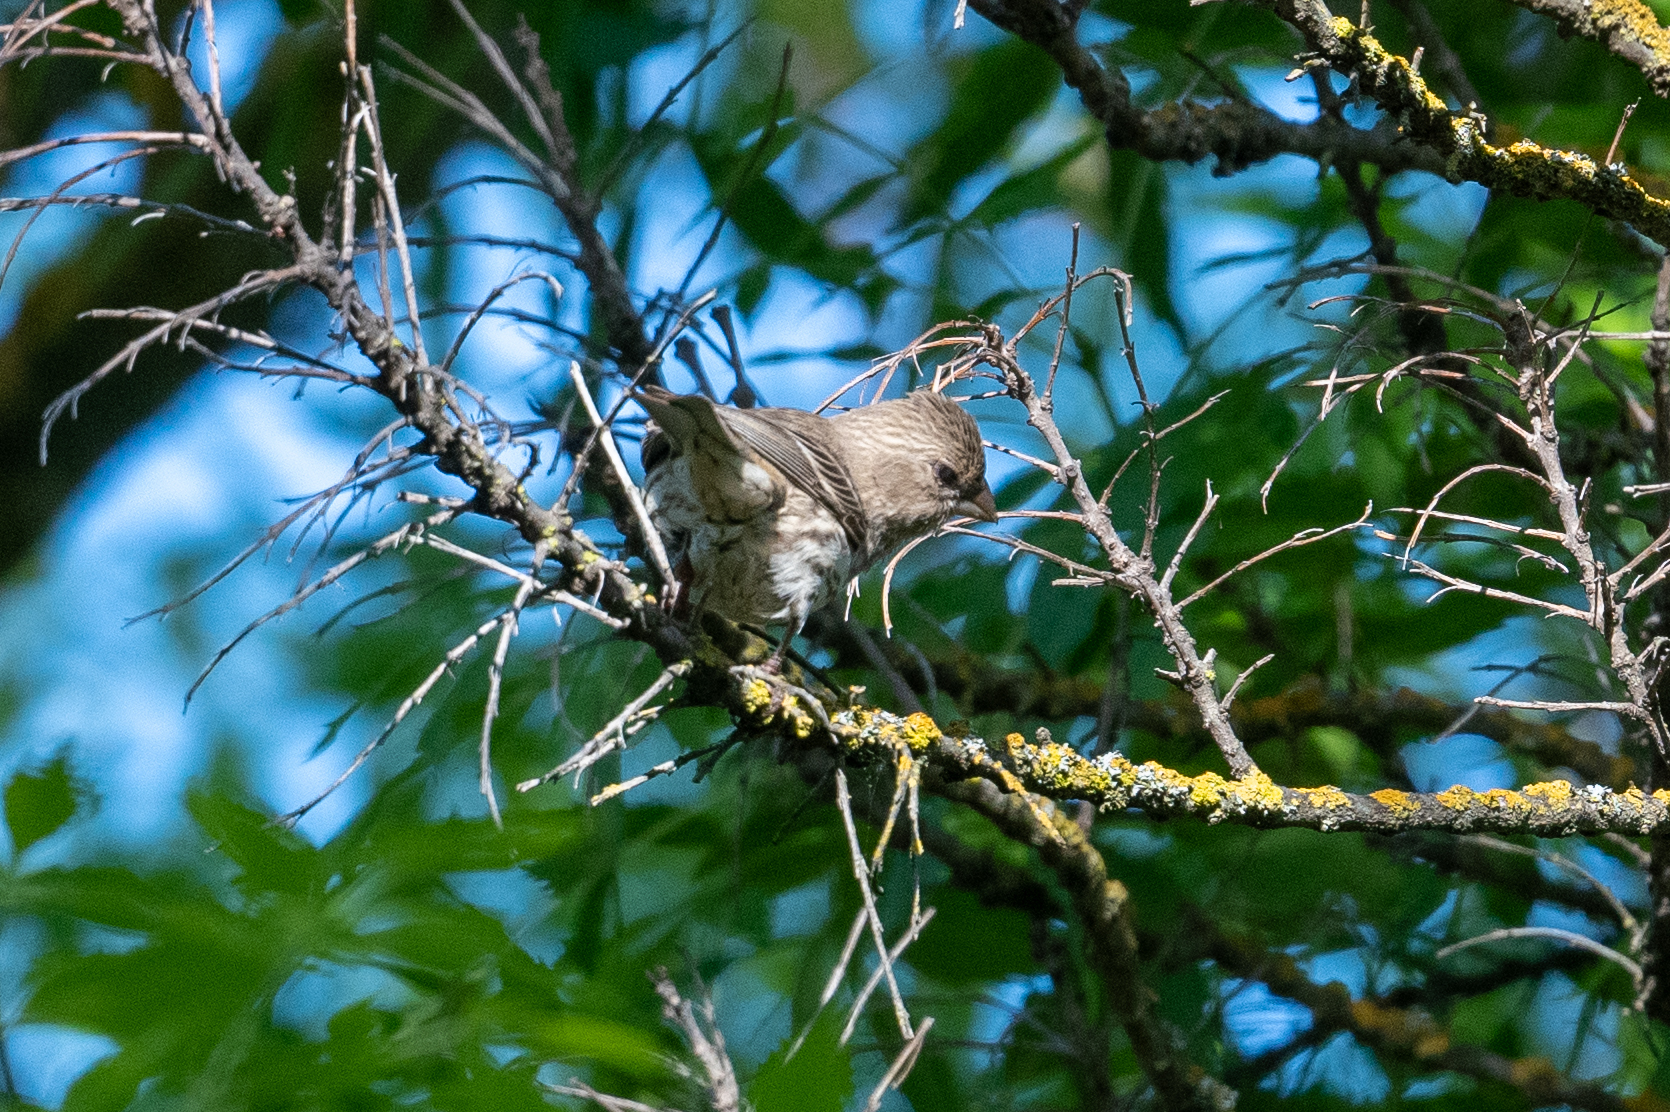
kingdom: Animalia
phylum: Chordata
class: Aves
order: Passeriformes
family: Fringillidae
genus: Haemorhous
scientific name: Haemorhous mexicanus
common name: House finch
